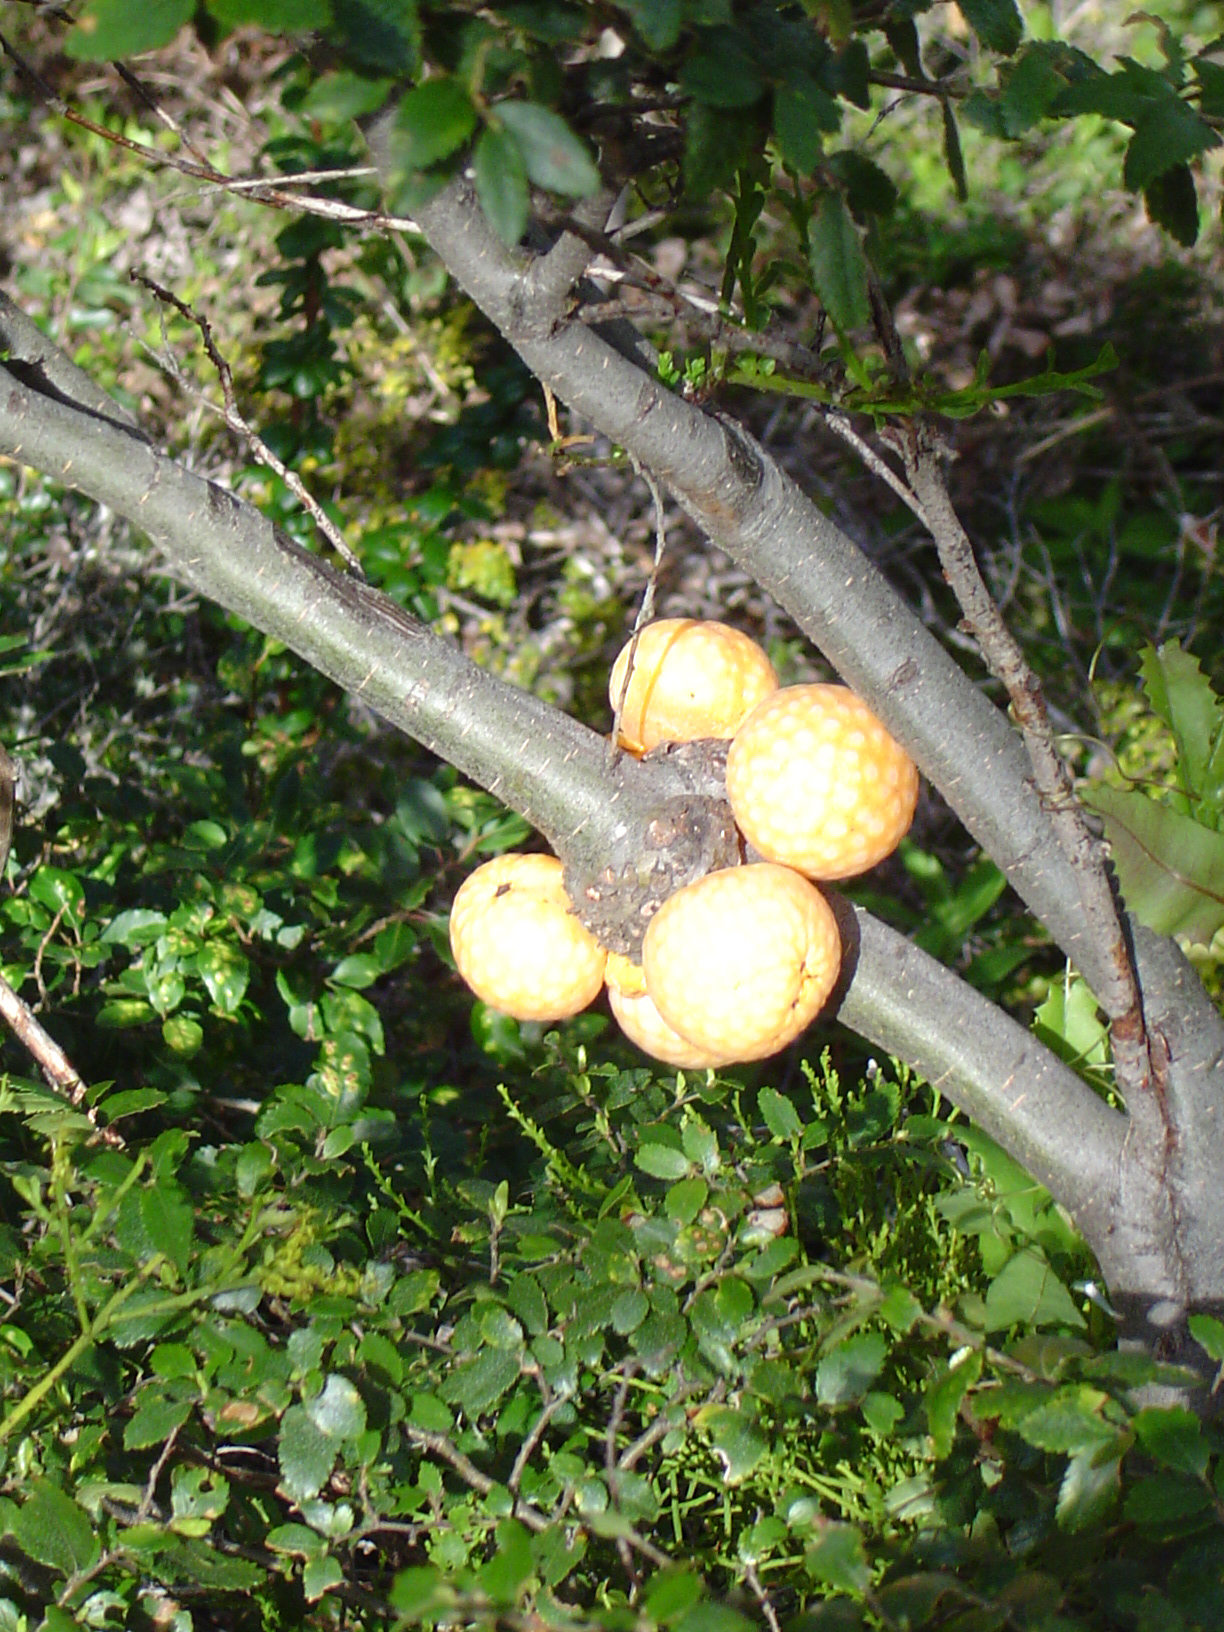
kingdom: Fungi
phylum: Ascomycota
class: Leotiomycetes
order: Cyttariales
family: Cyttariaceae
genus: Cyttaria
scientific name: Cyttaria darwinii
